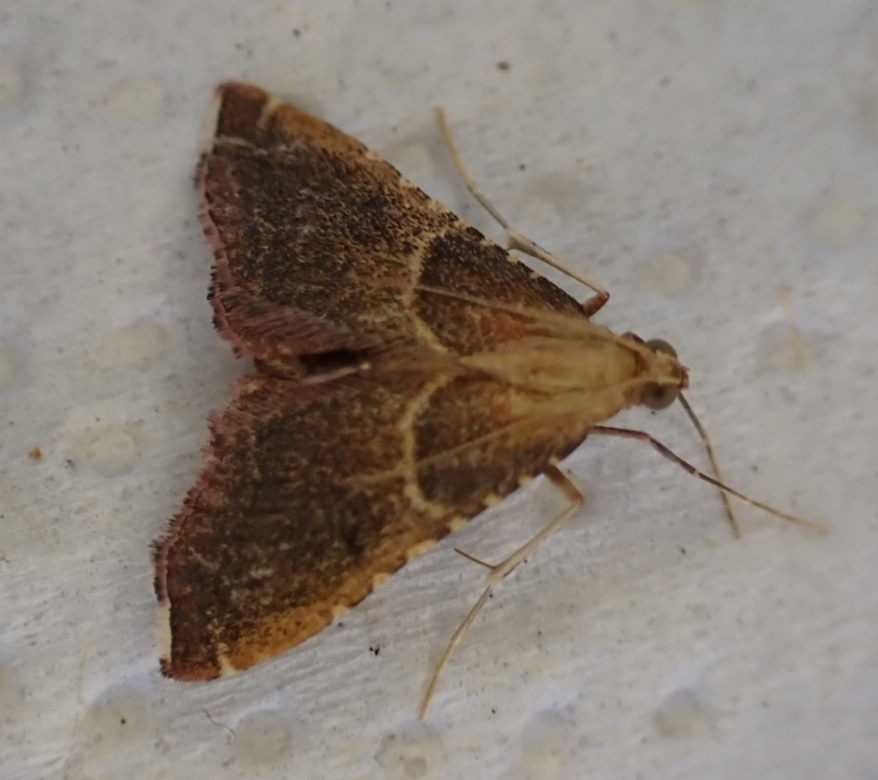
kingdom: Animalia
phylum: Arthropoda
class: Insecta
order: Lepidoptera
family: Pyralidae
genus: Endotricha
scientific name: Endotricha flammealis
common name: Rosy tabby
